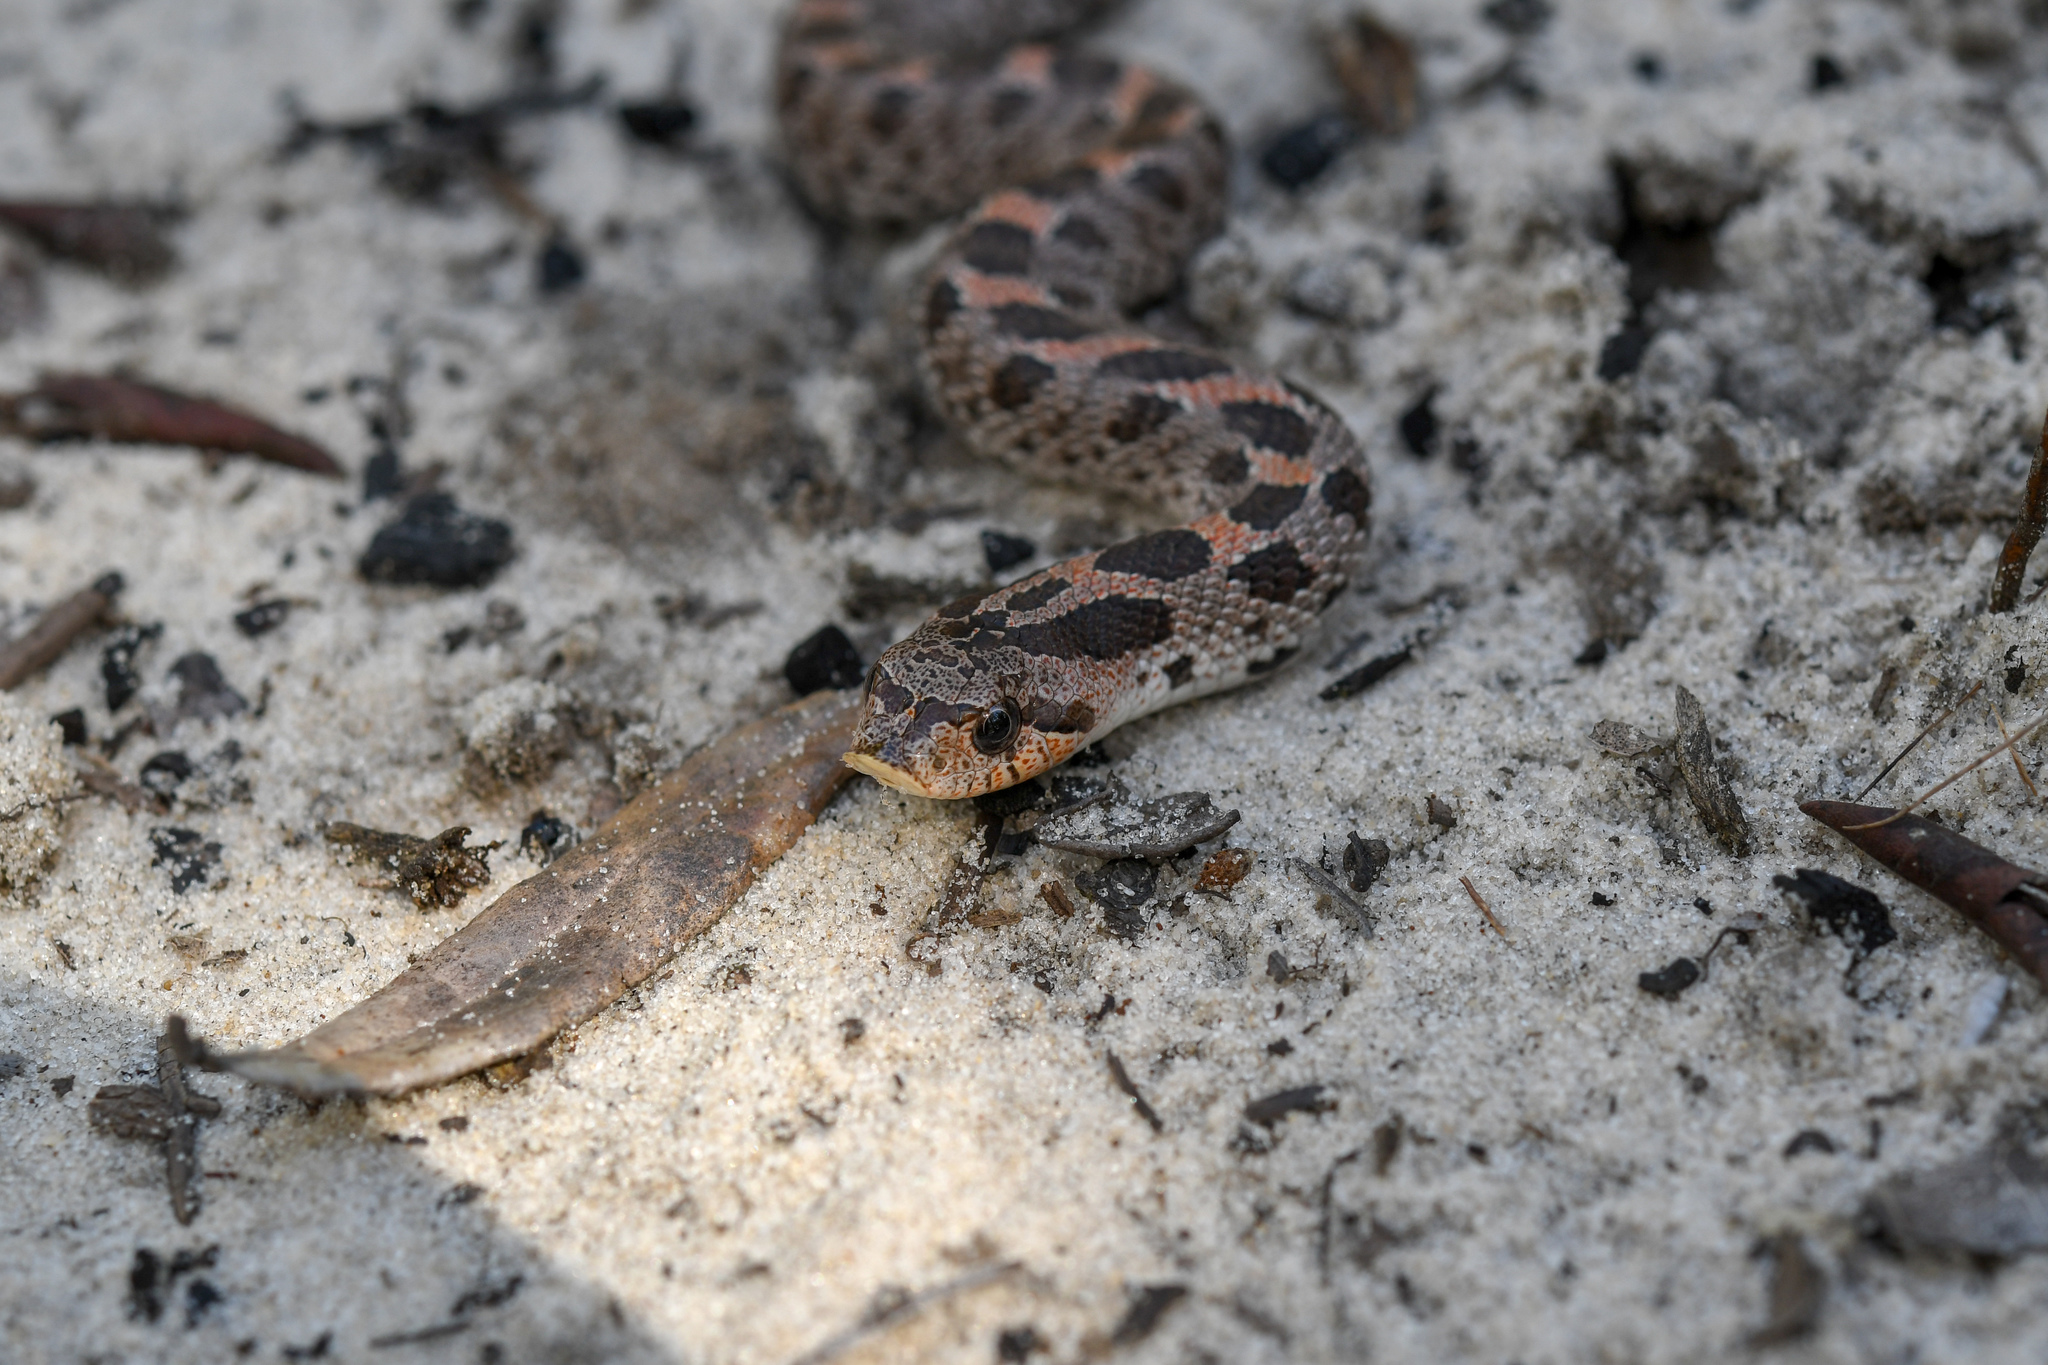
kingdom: Animalia
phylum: Chordata
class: Squamata
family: Colubridae
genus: Heterodon
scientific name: Heterodon simus
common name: Southern hognose snake
